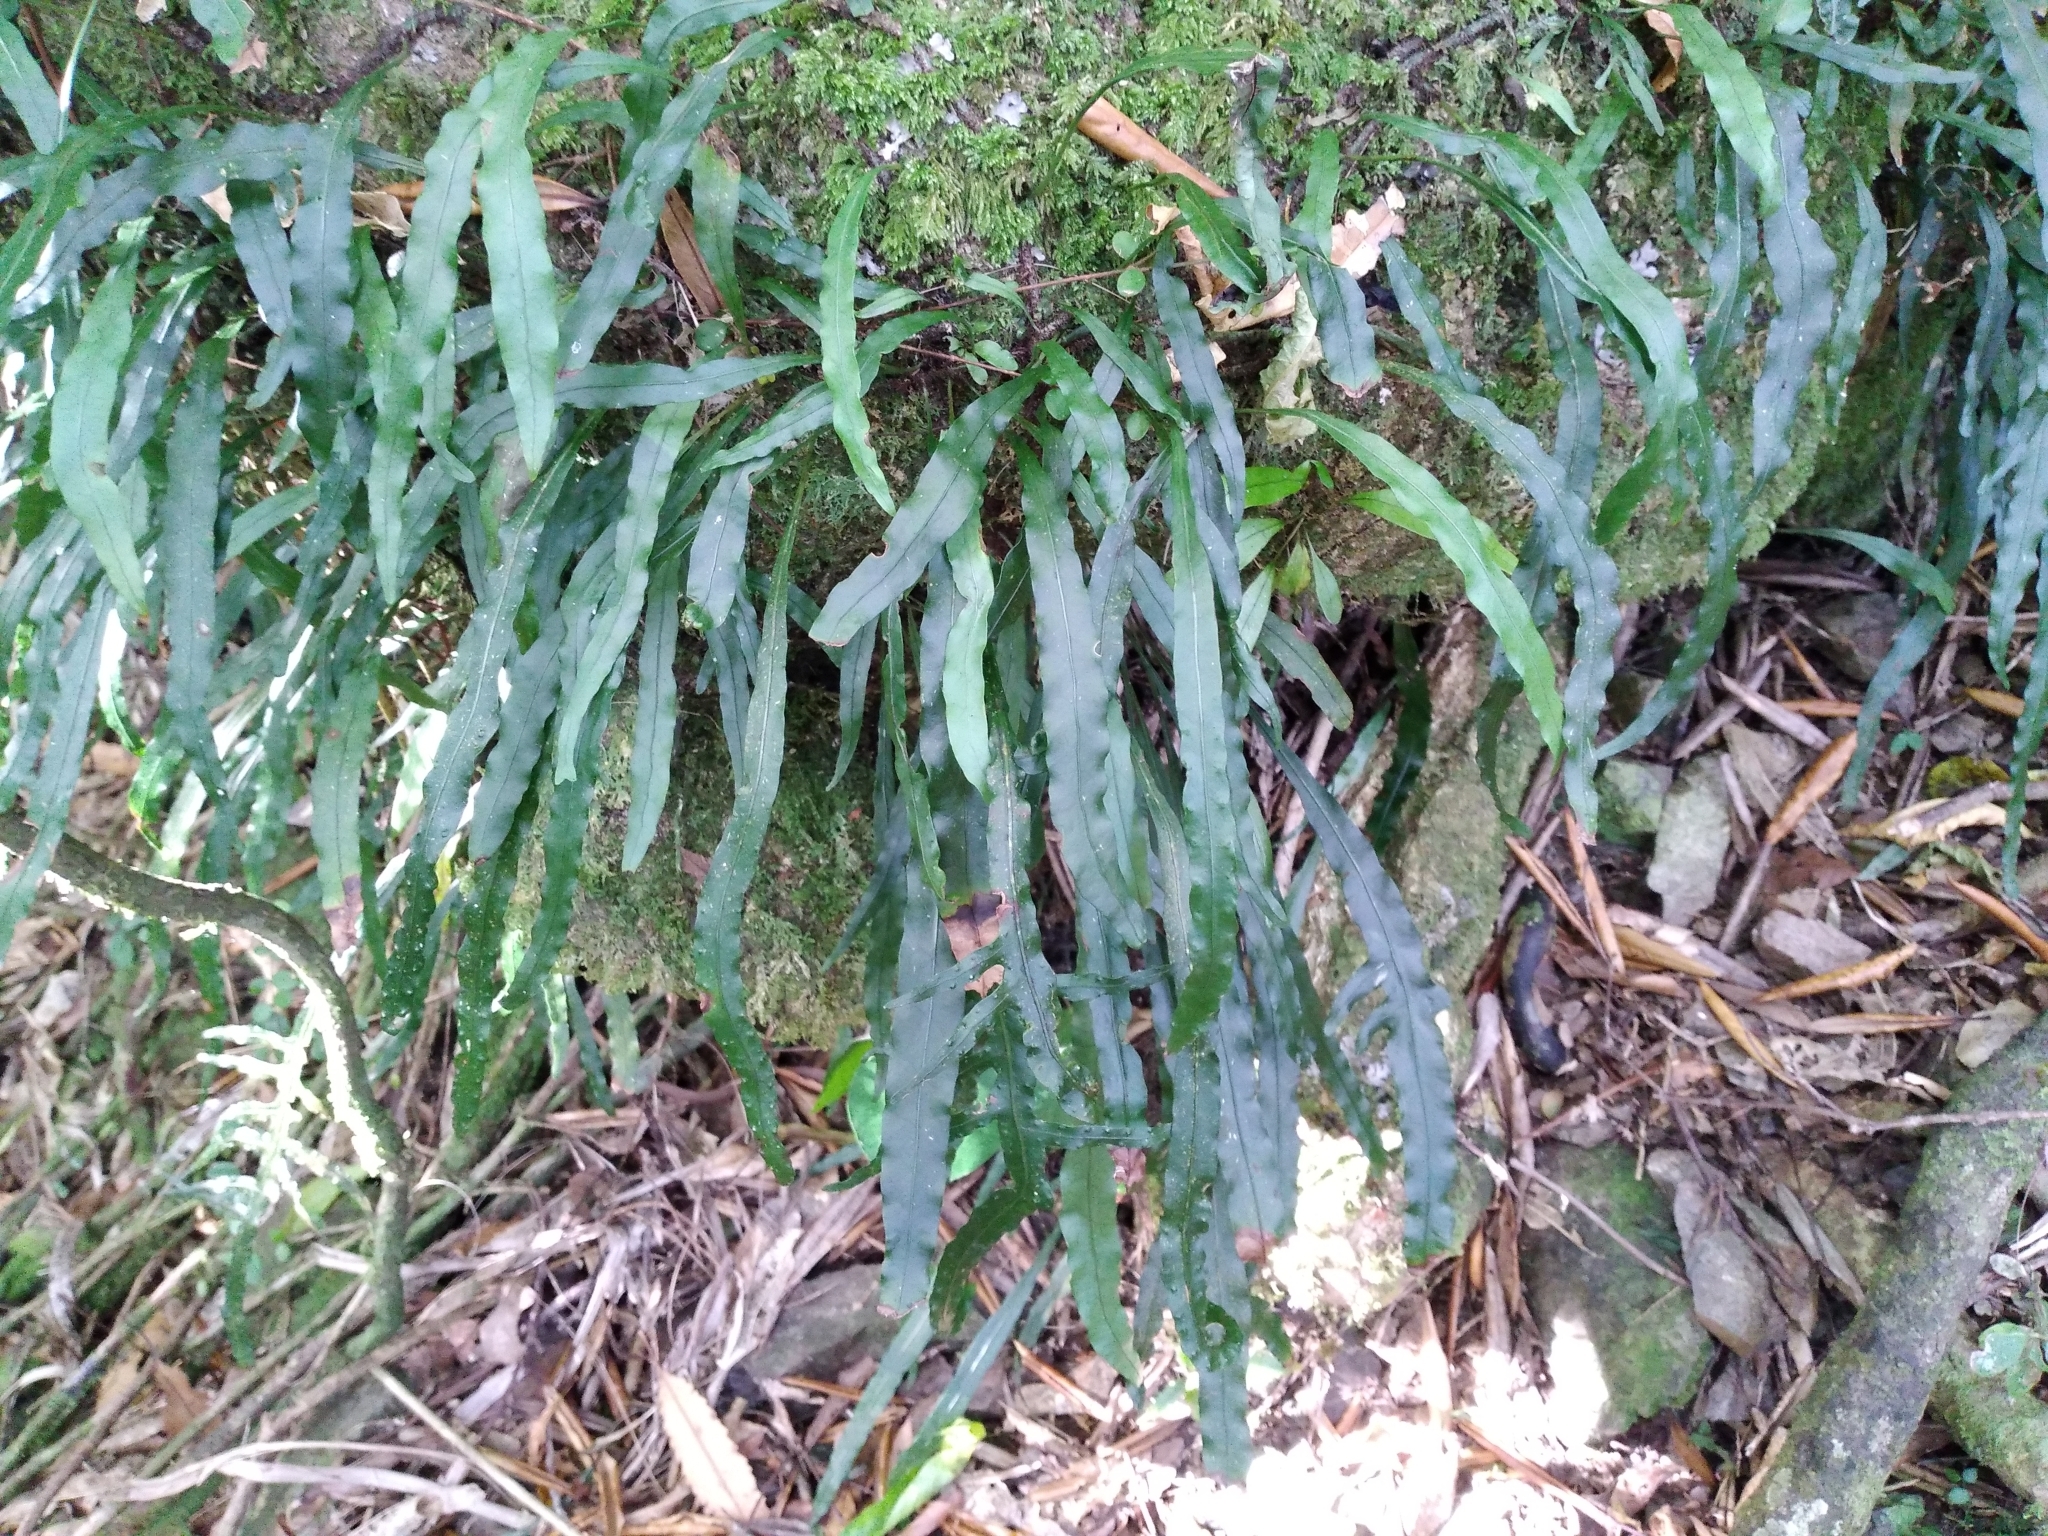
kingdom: Plantae
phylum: Tracheophyta
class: Polypodiopsida
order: Polypodiales
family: Polypodiaceae
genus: Lecanopteris
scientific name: Lecanopteris scandens
